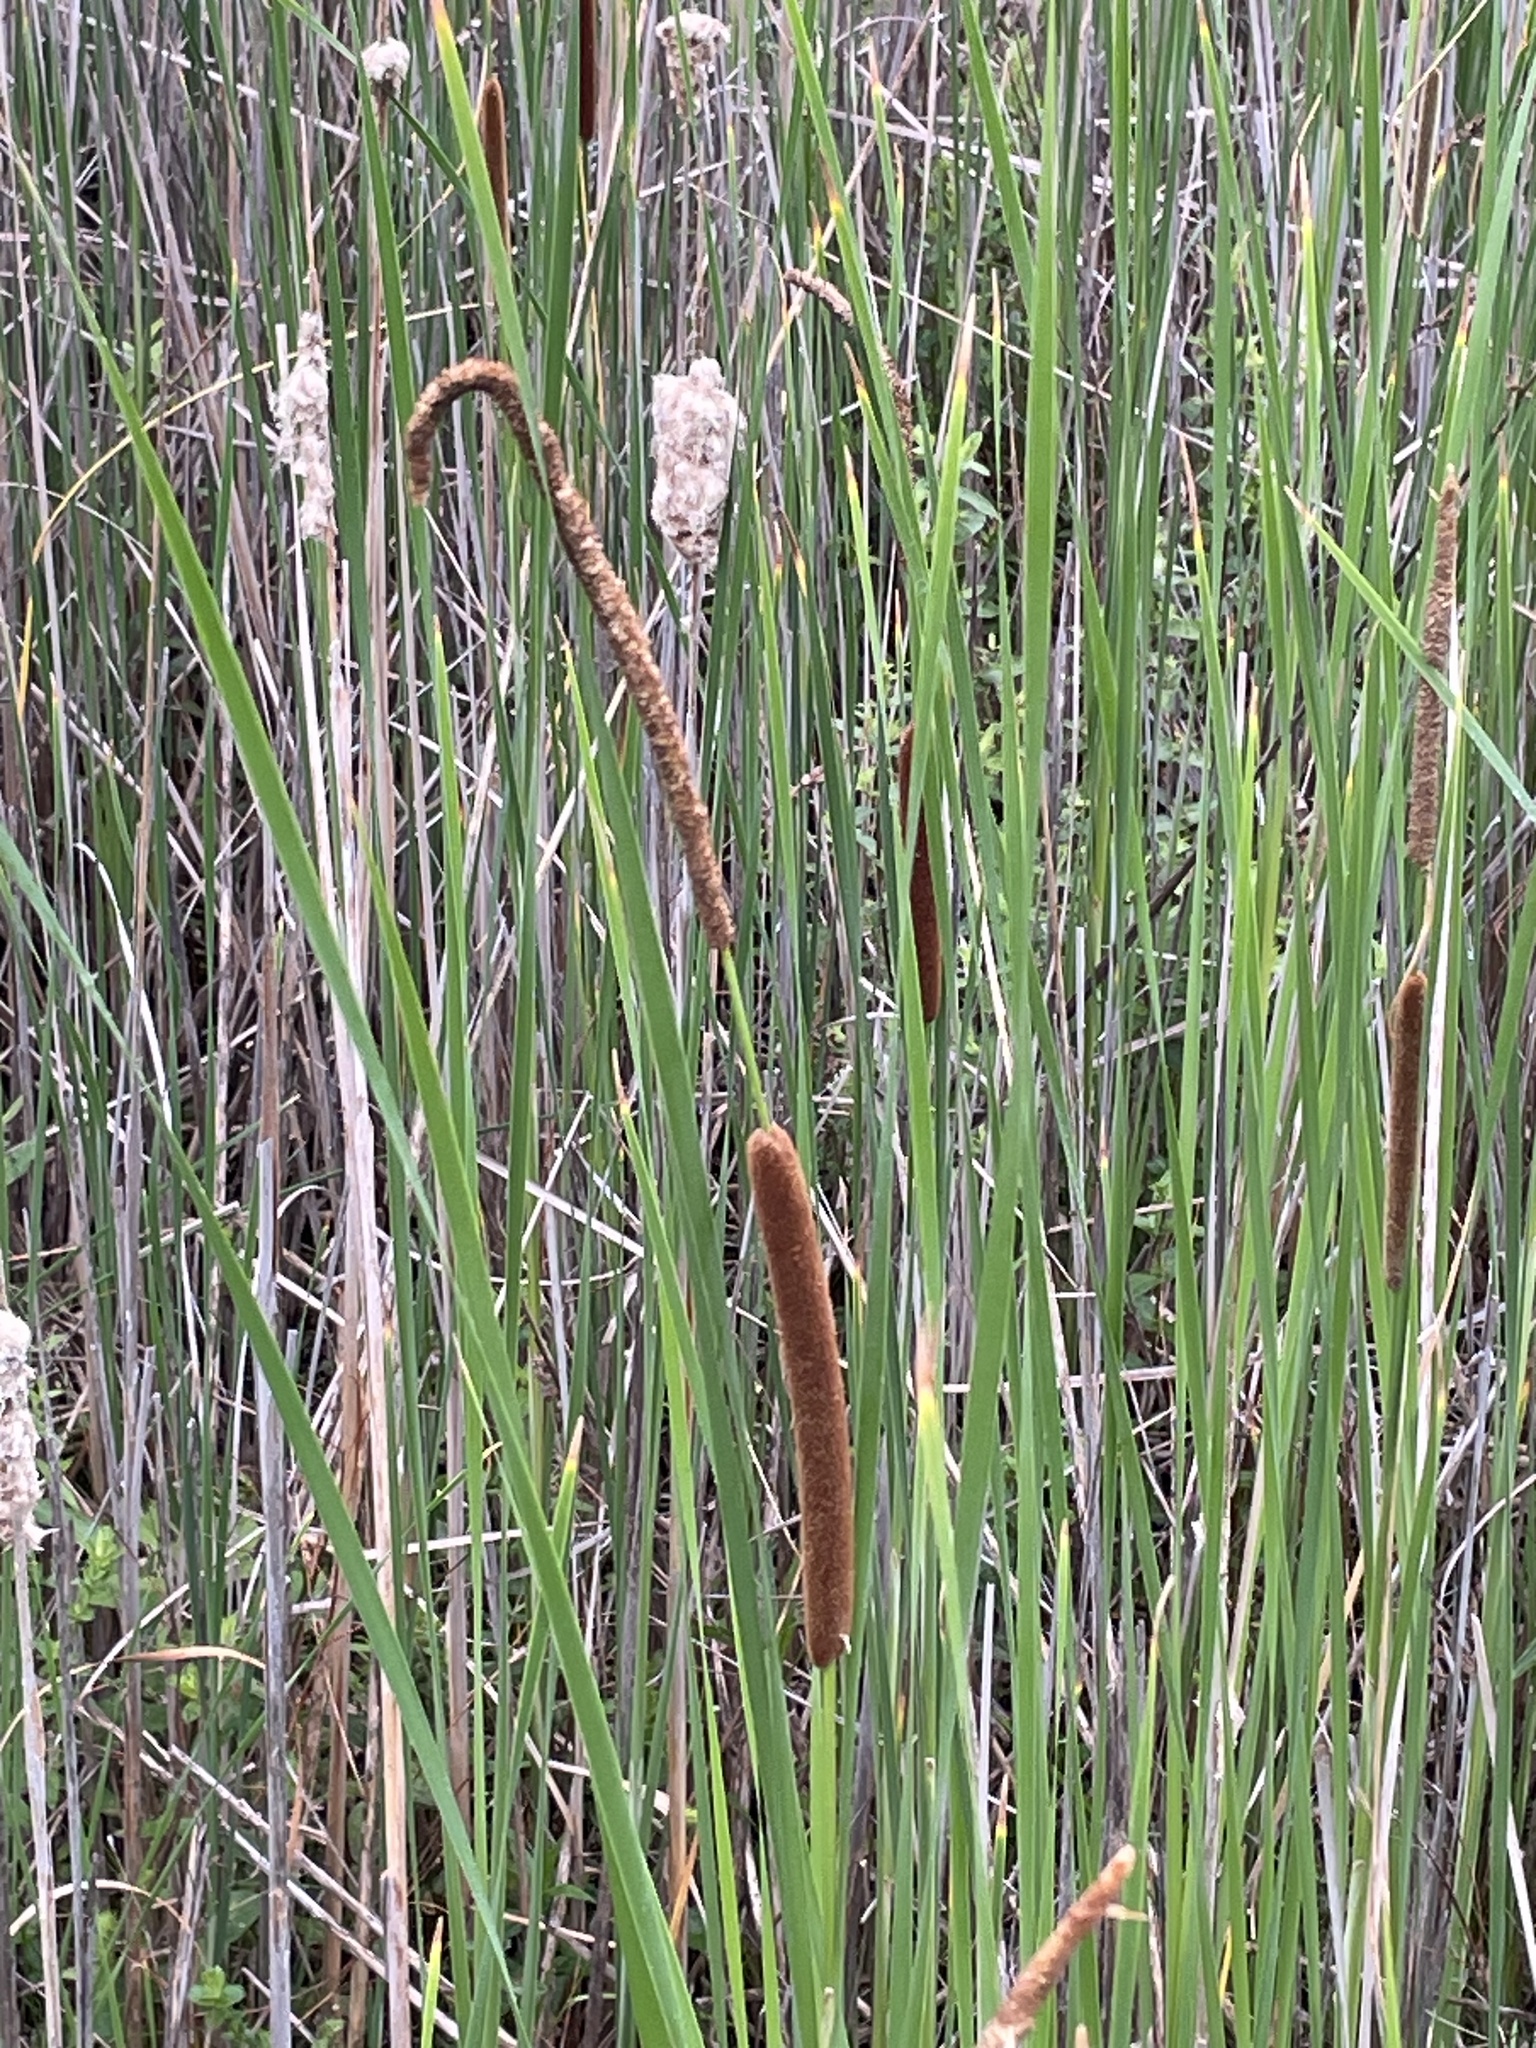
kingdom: Plantae
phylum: Tracheophyta
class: Liliopsida
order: Poales
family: Typhaceae
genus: Typha
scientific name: Typha angustifolia
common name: Lesser bulrush
